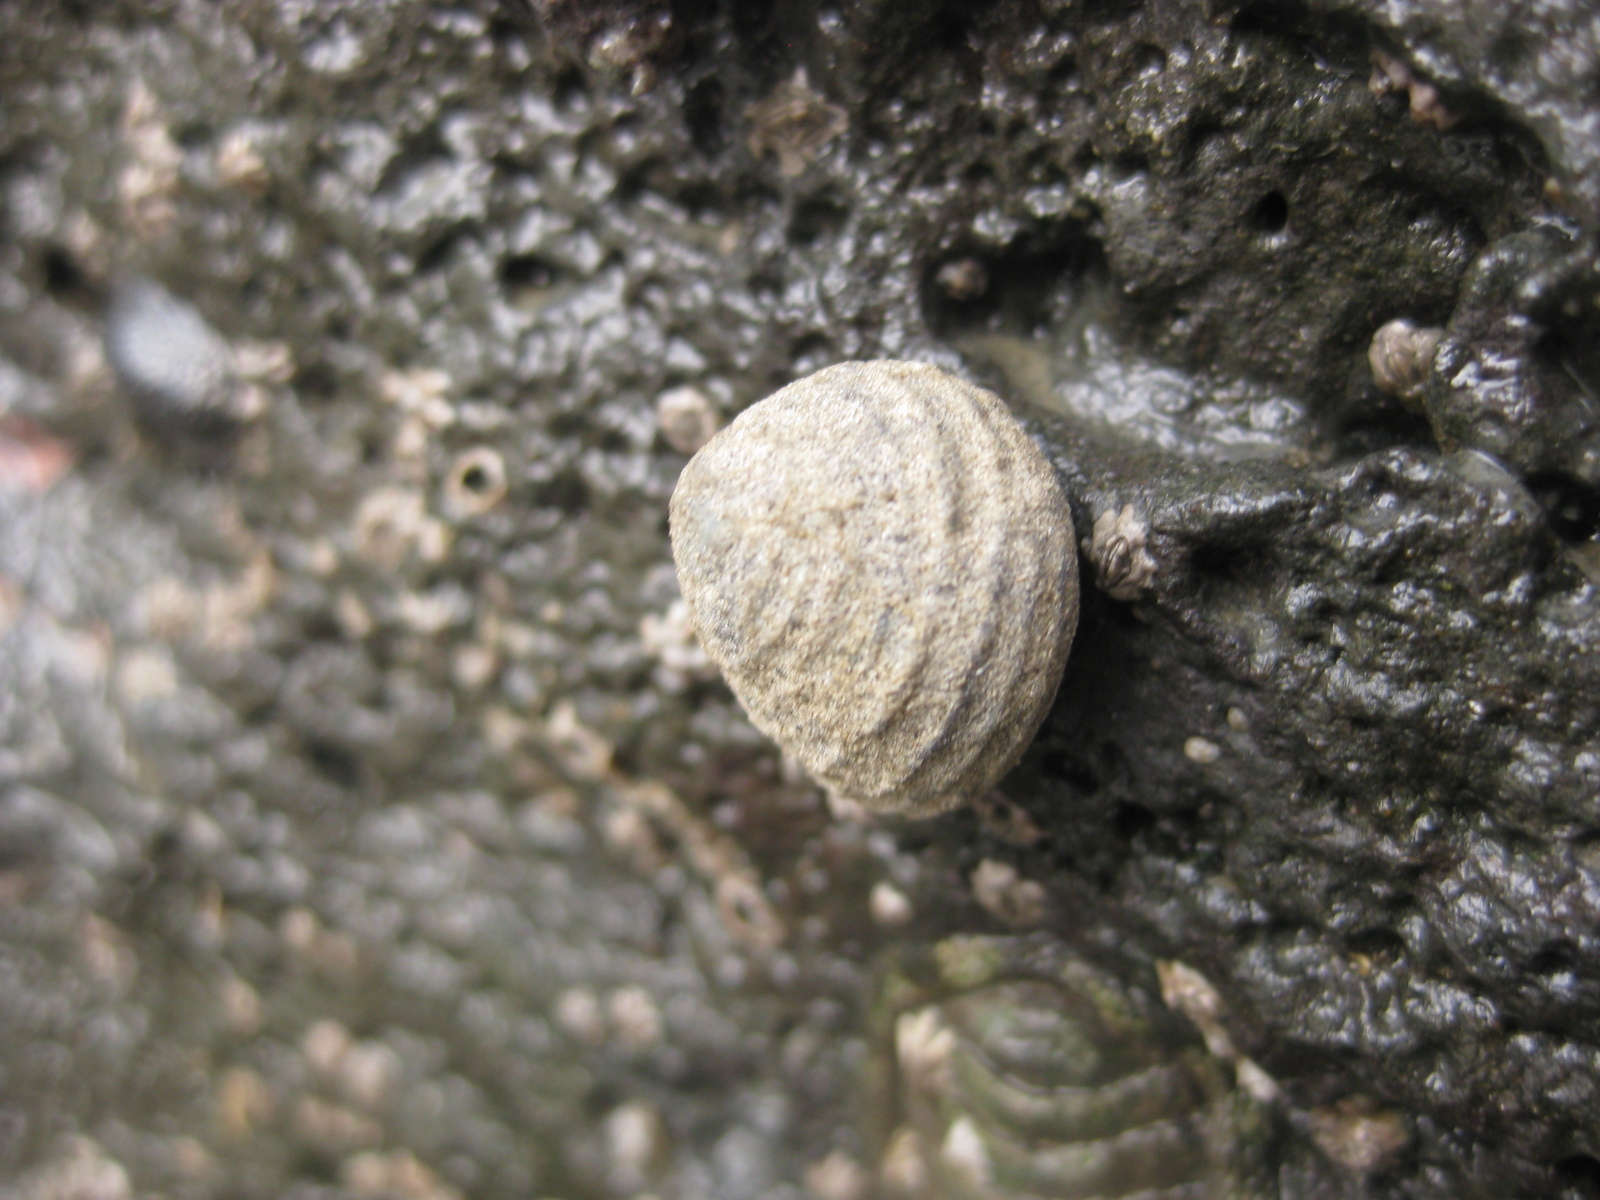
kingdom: Animalia
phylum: Mollusca
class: Gastropoda
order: Trochida
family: Trochidae
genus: Diloma
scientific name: Diloma subrostratum
